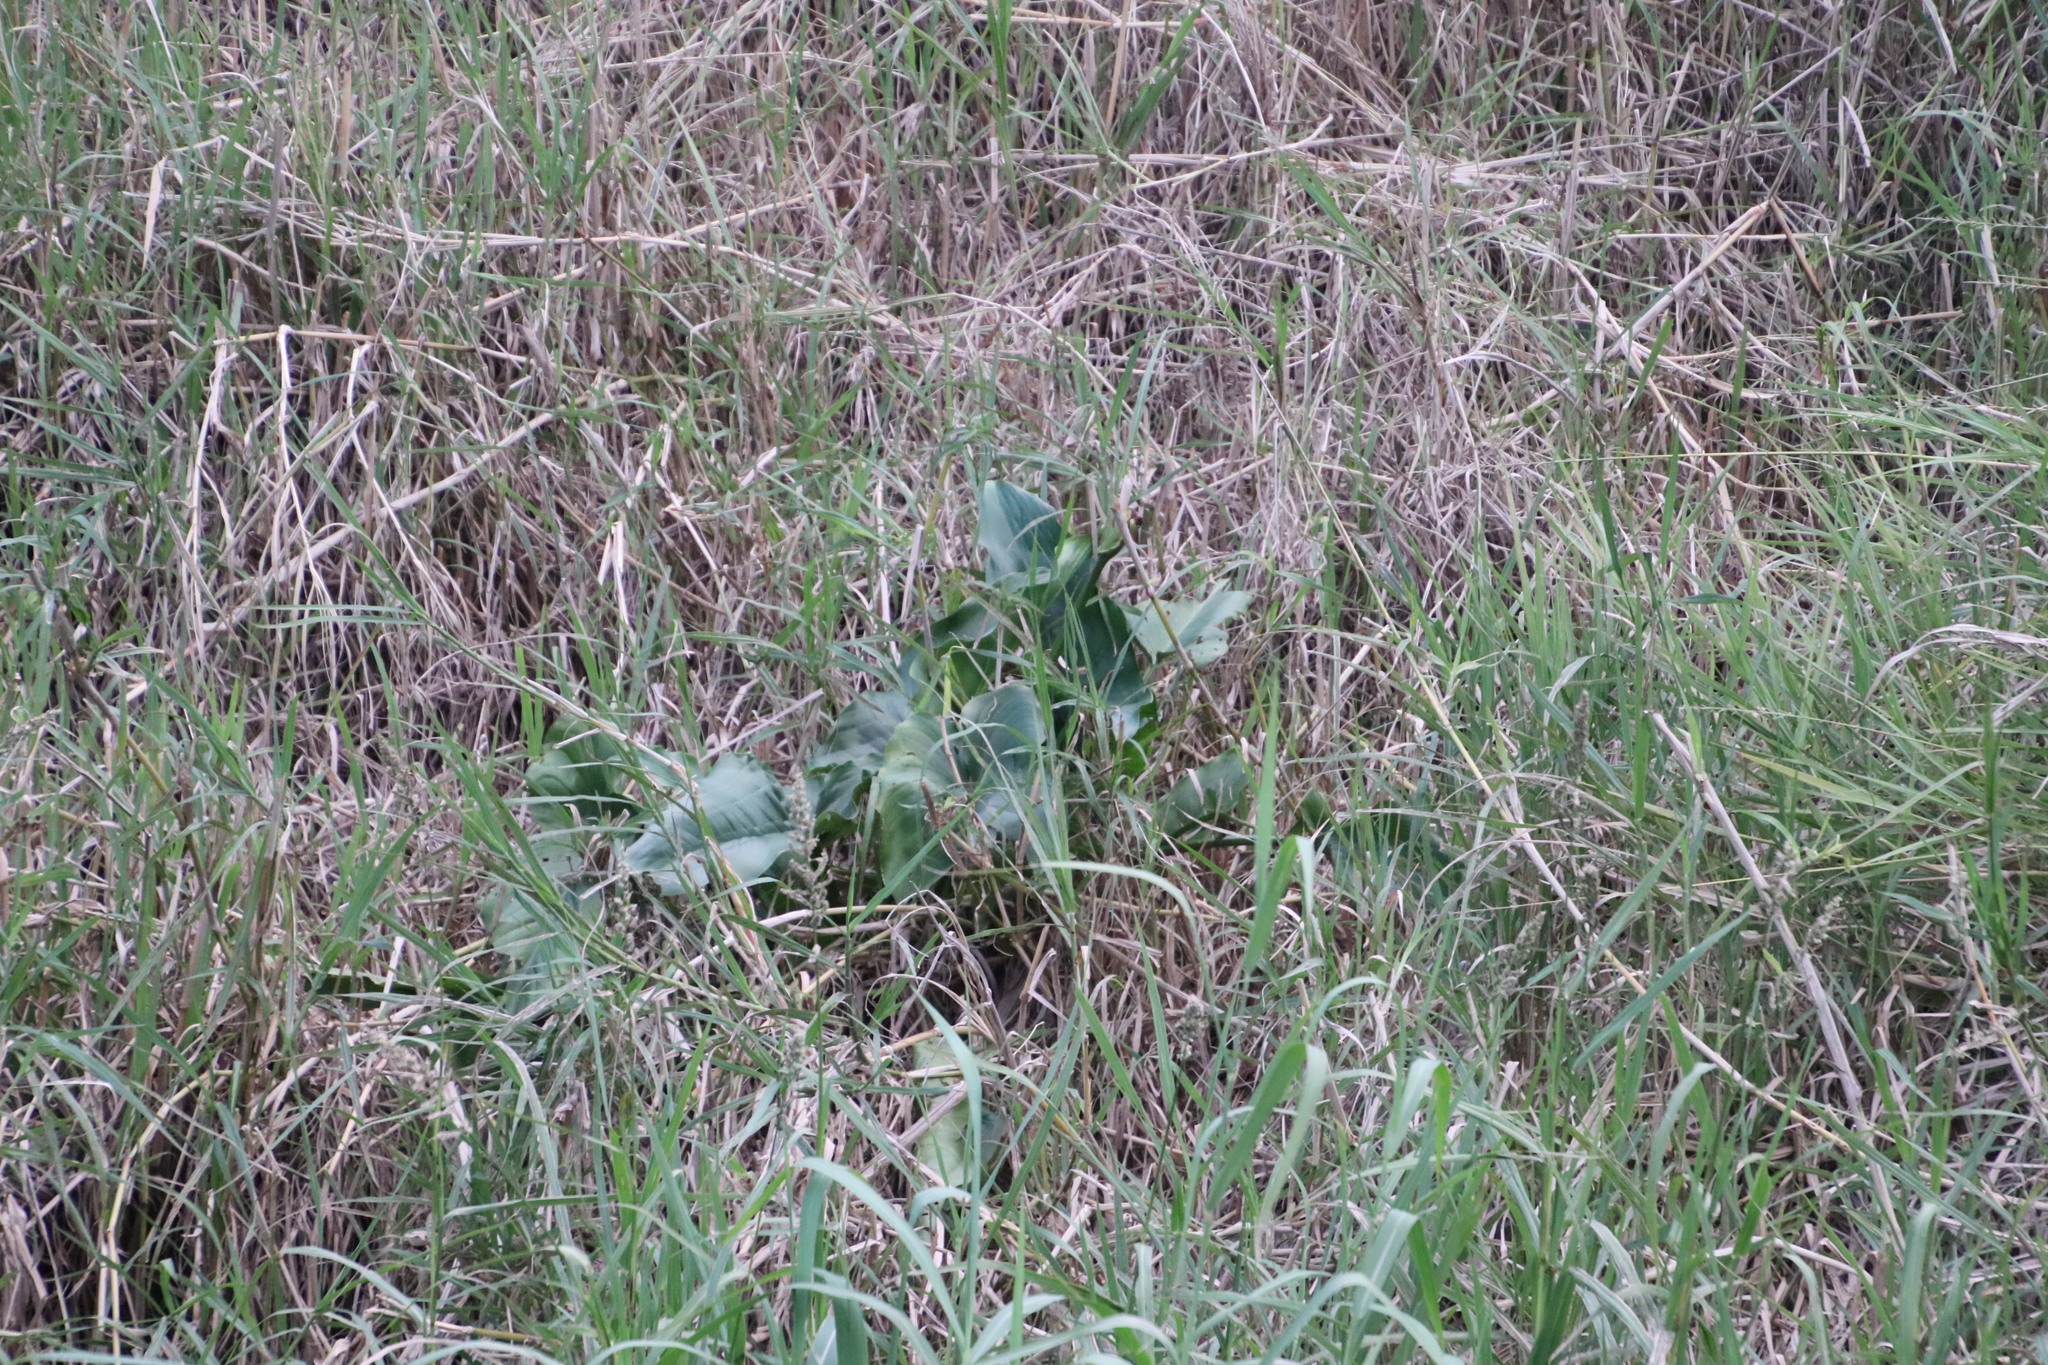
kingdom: Plantae
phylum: Tracheophyta
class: Liliopsida
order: Alismatales
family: Araceae
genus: Zantedeschia
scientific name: Zantedeschia aethiopica
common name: Altar-lily
